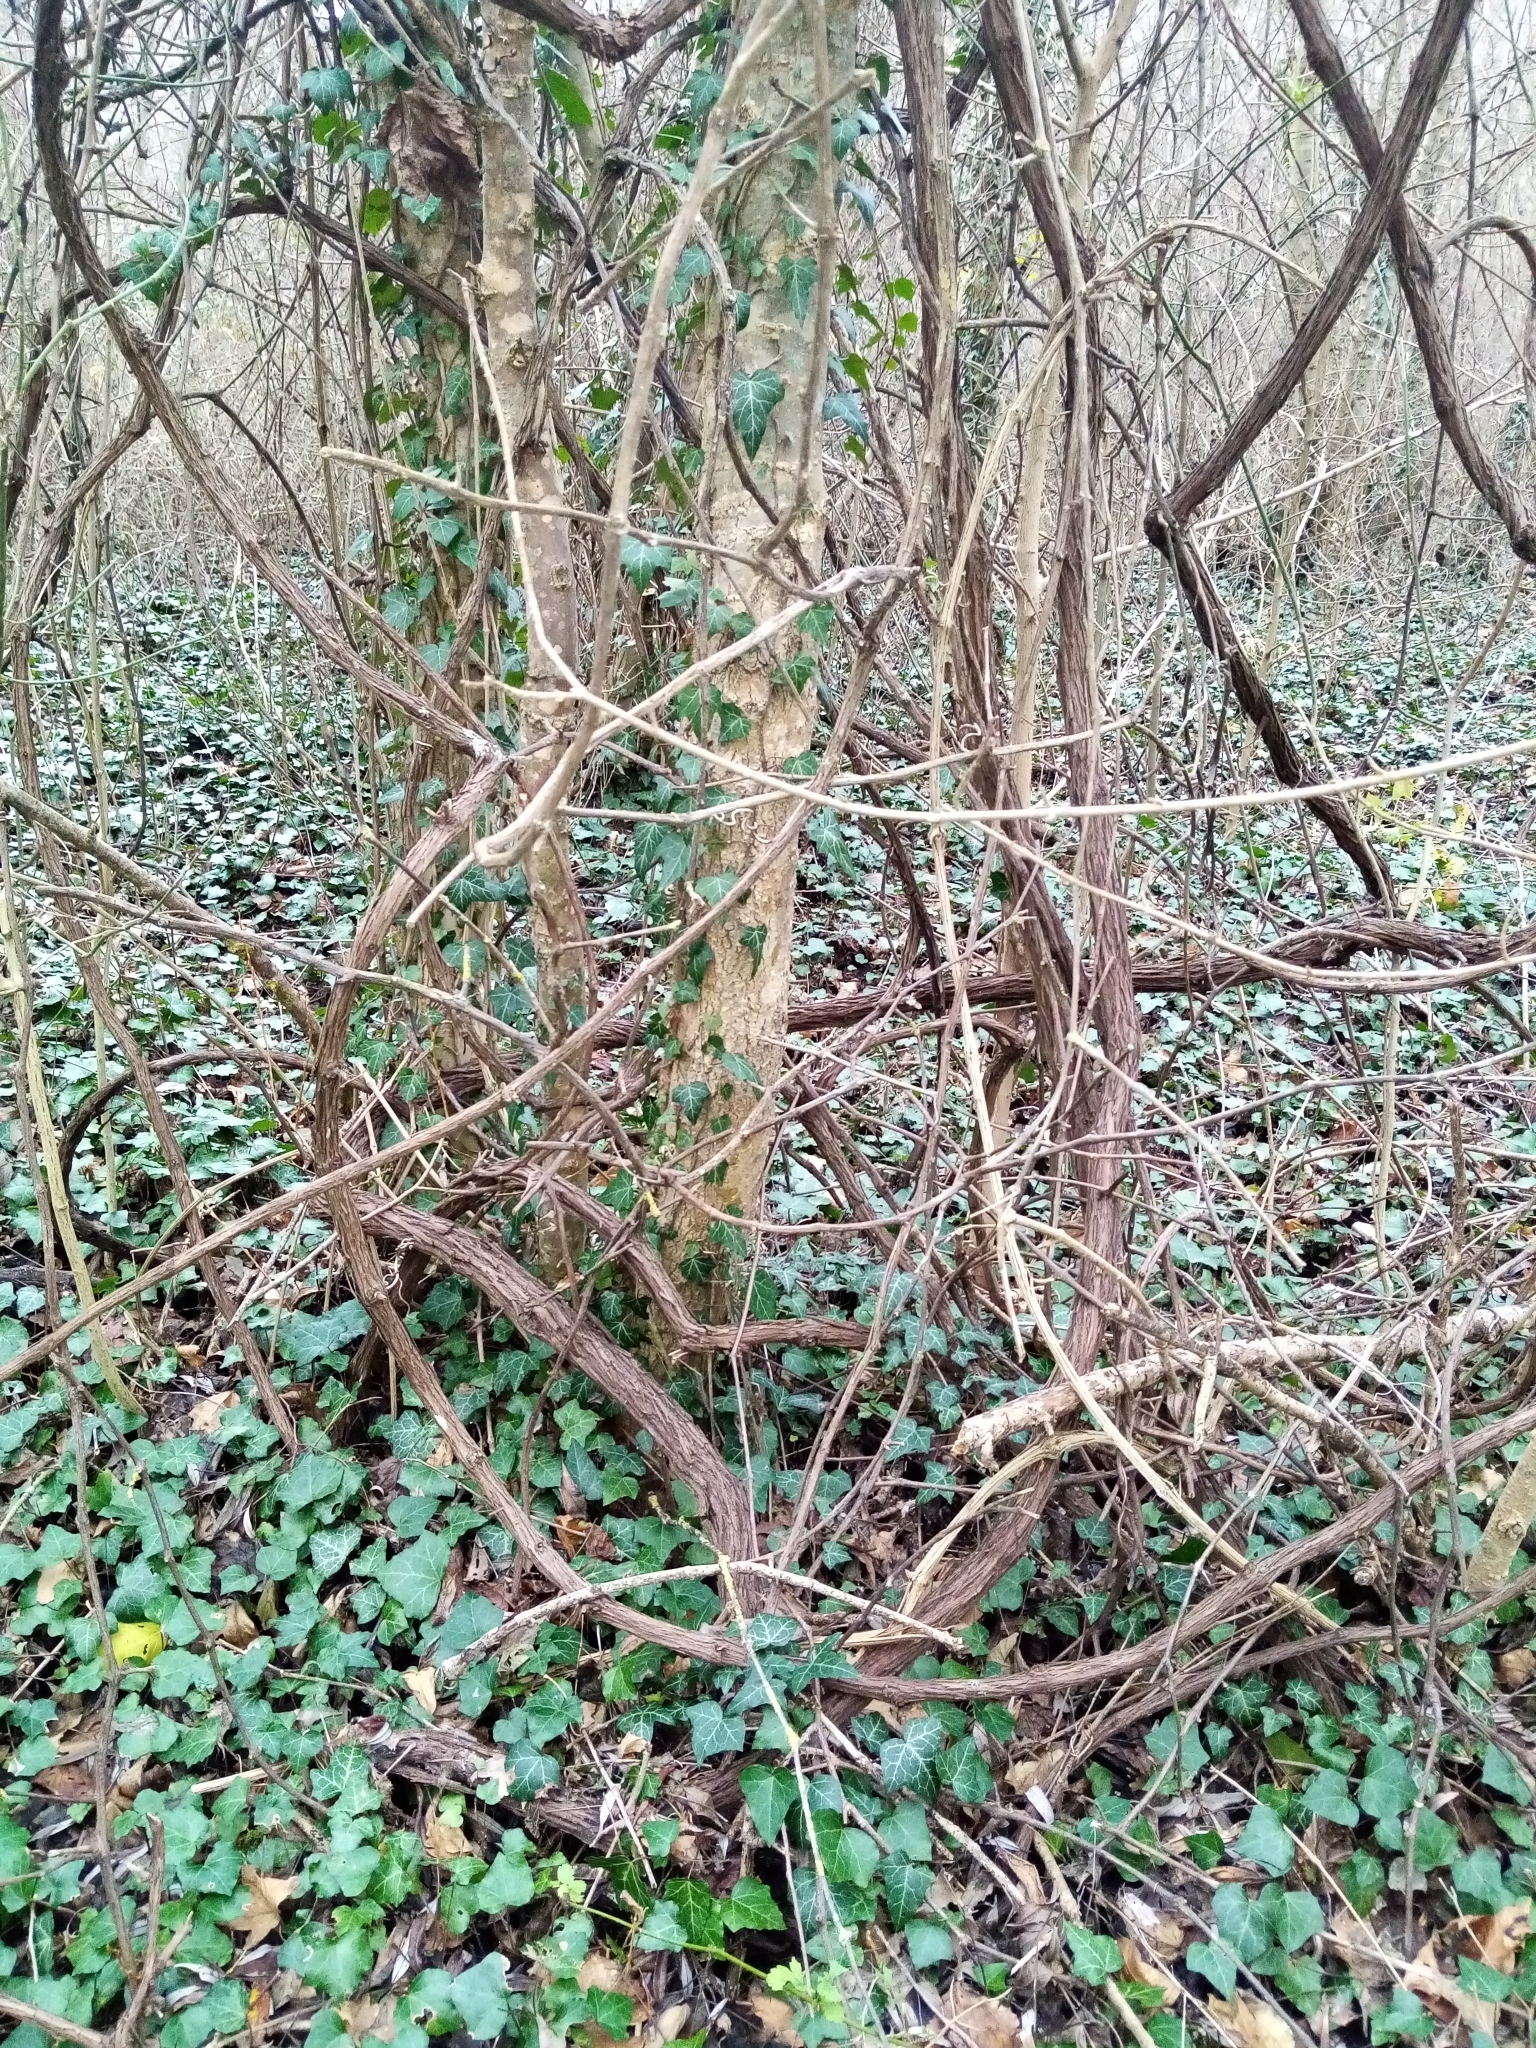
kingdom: Plantae
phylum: Tracheophyta
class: Magnoliopsida
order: Vitales
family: Vitaceae
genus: Vitis
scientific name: Vitis gmelinii
